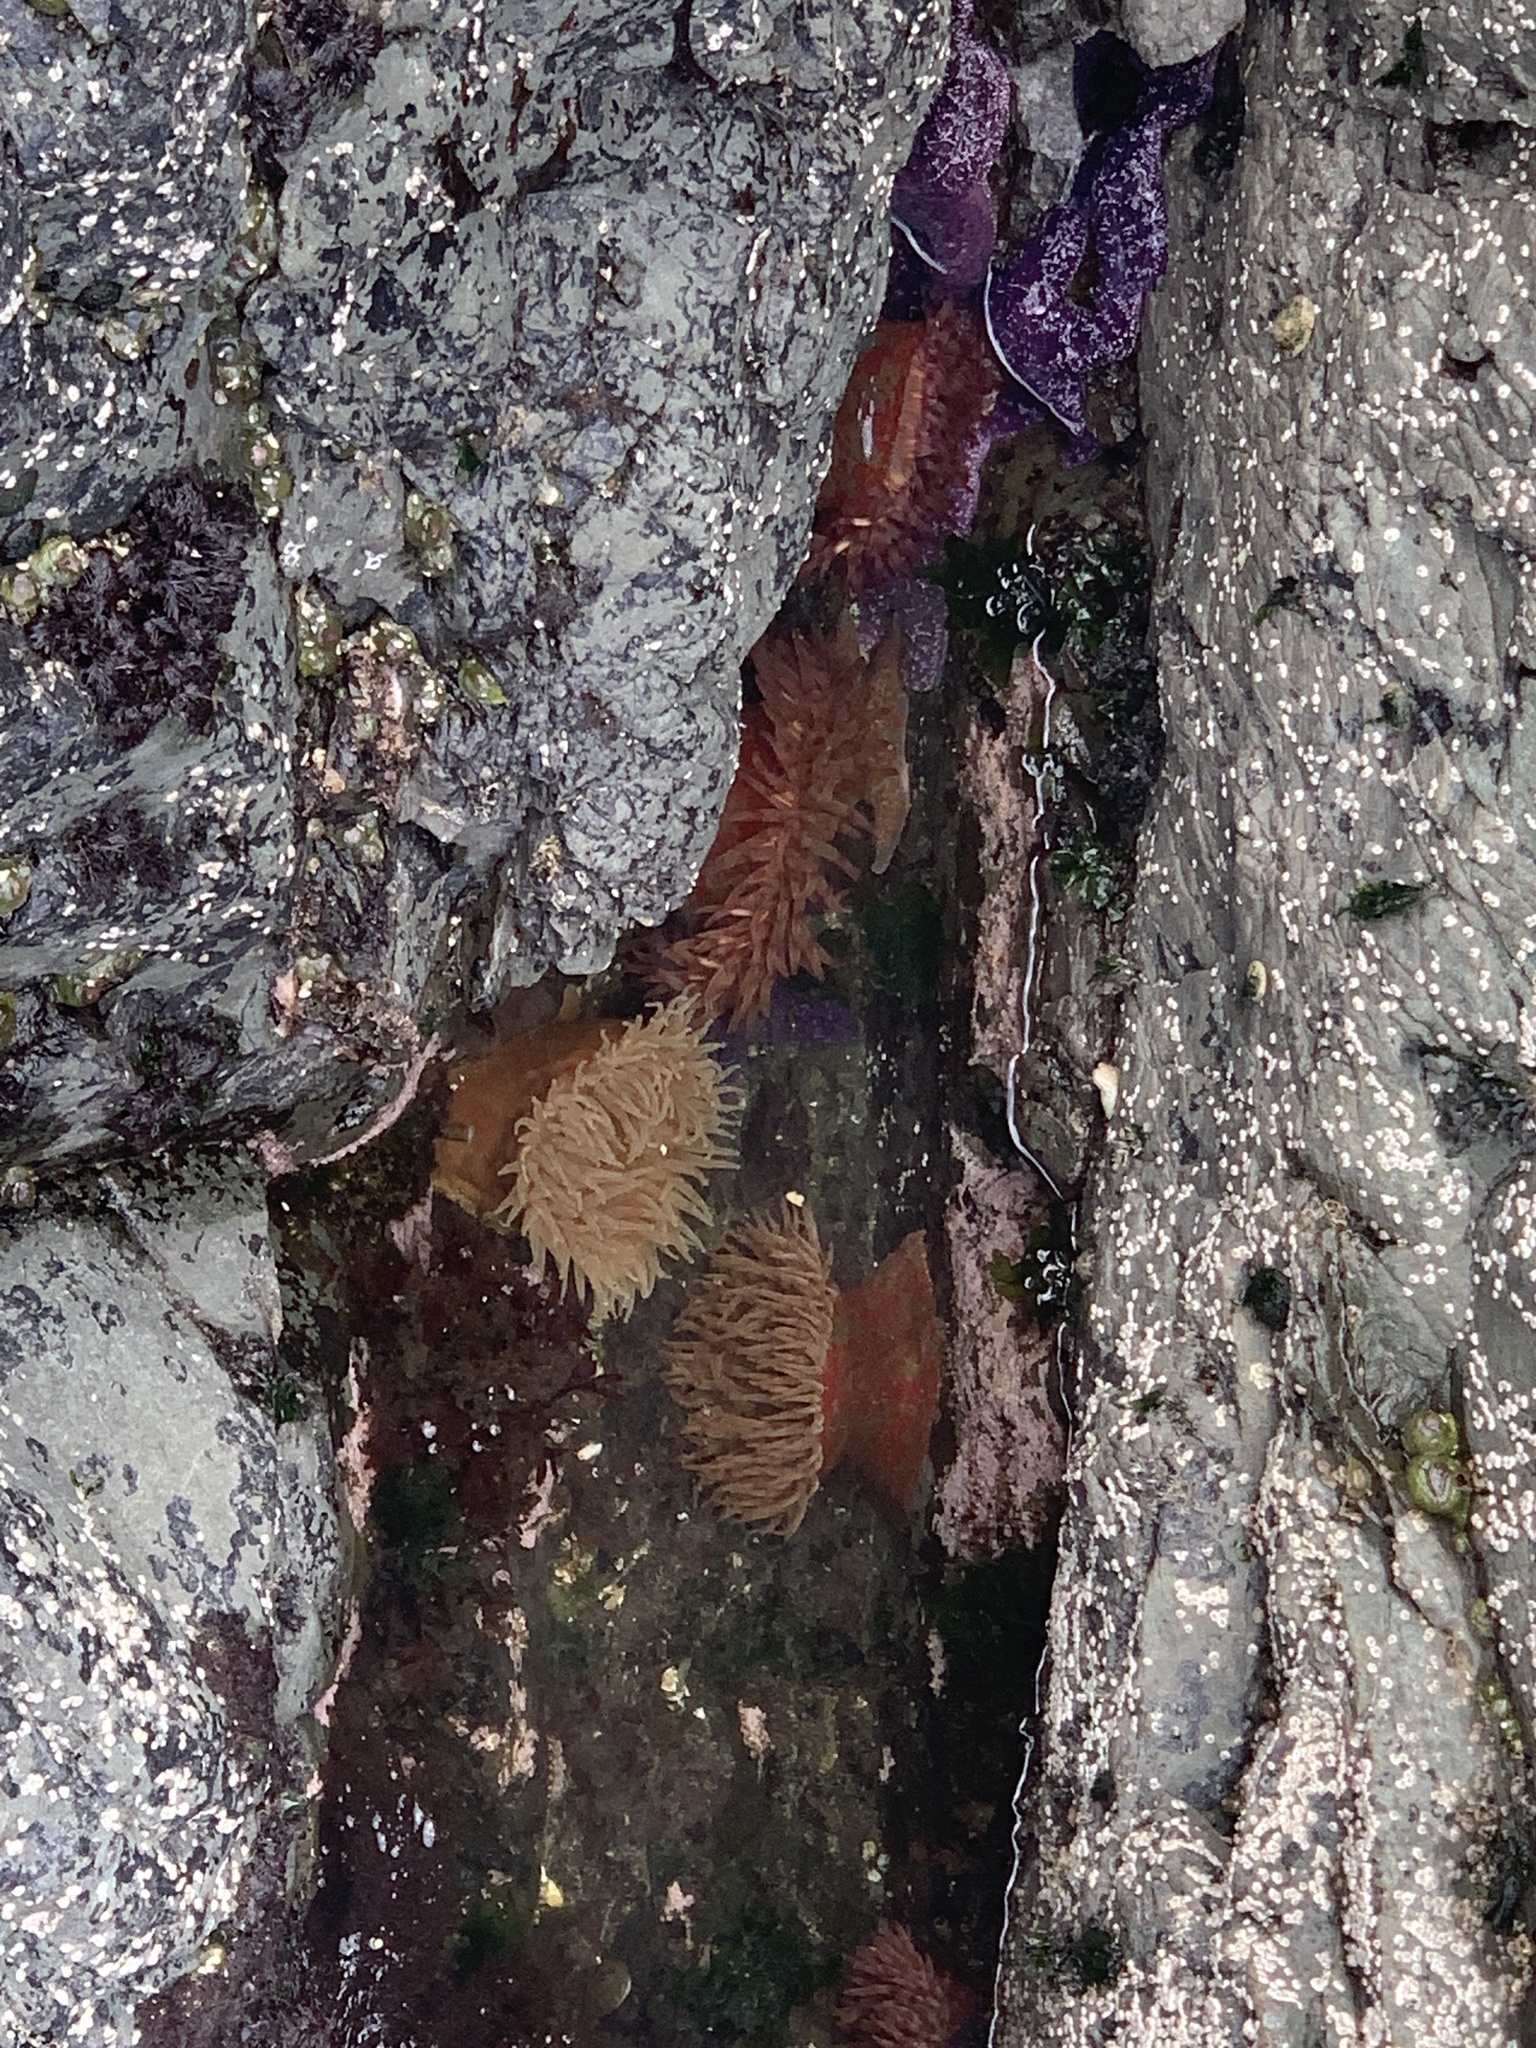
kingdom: Animalia
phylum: Cnidaria
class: Anthozoa
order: Actiniaria
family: Actiniidae
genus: Urticina
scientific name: Urticina grebelnyi
